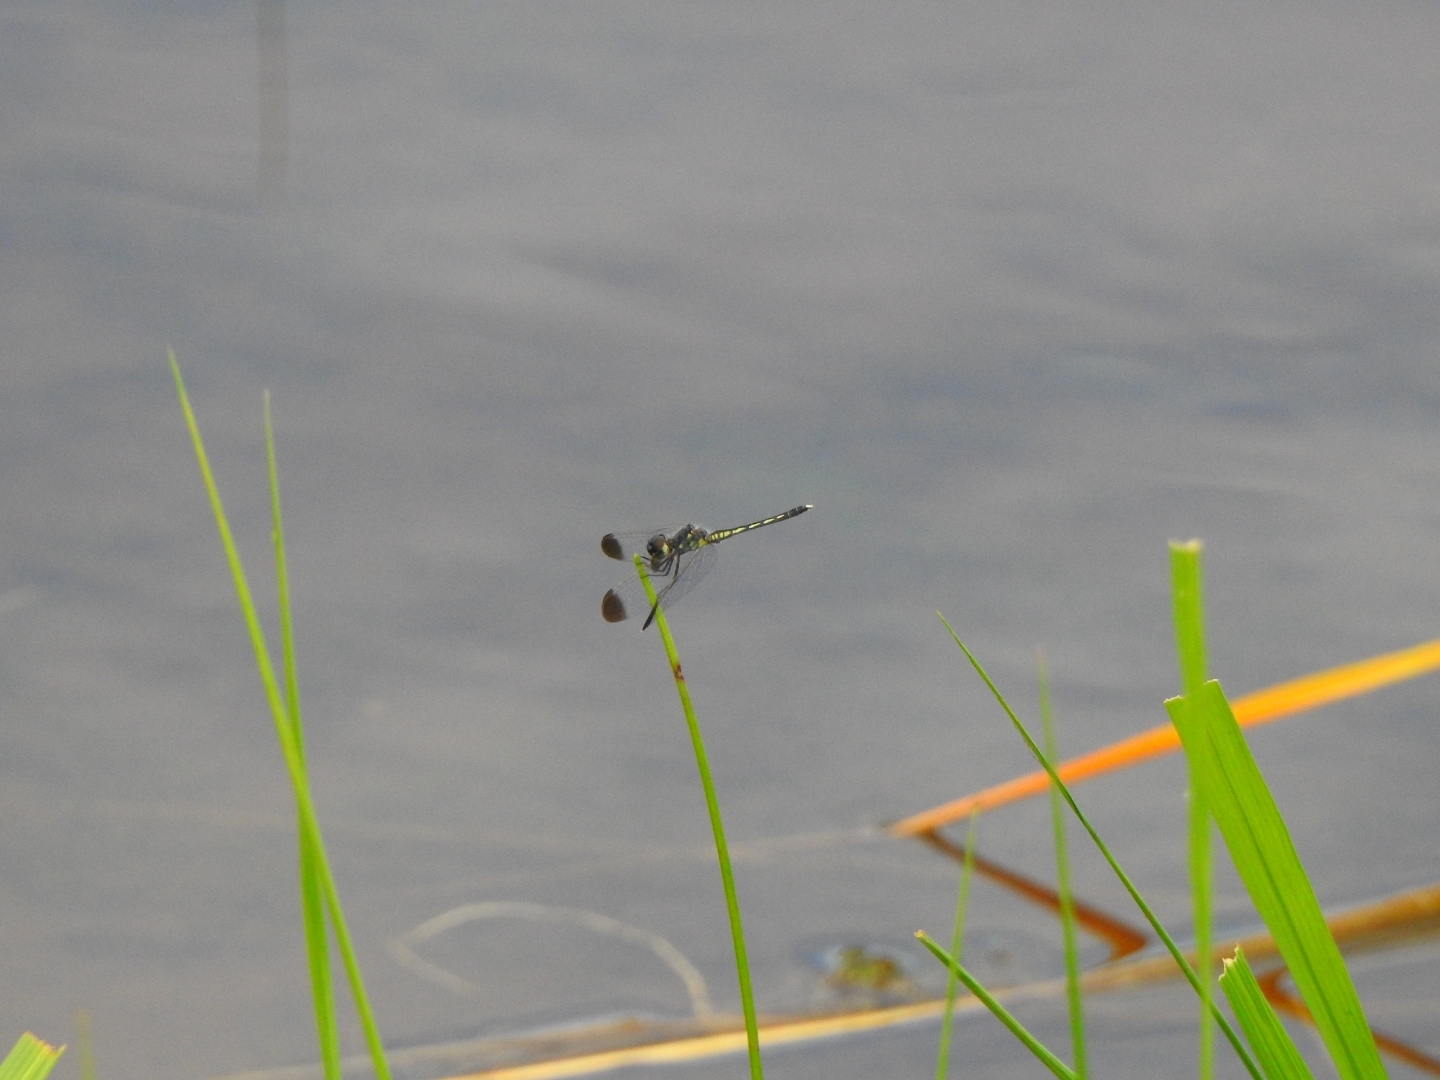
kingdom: Animalia
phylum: Arthropoda
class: Insecta
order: Odonata
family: Libellulidae
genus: Diplacodes
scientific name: Diplacodes nebulosa
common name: Black-tipped percher
